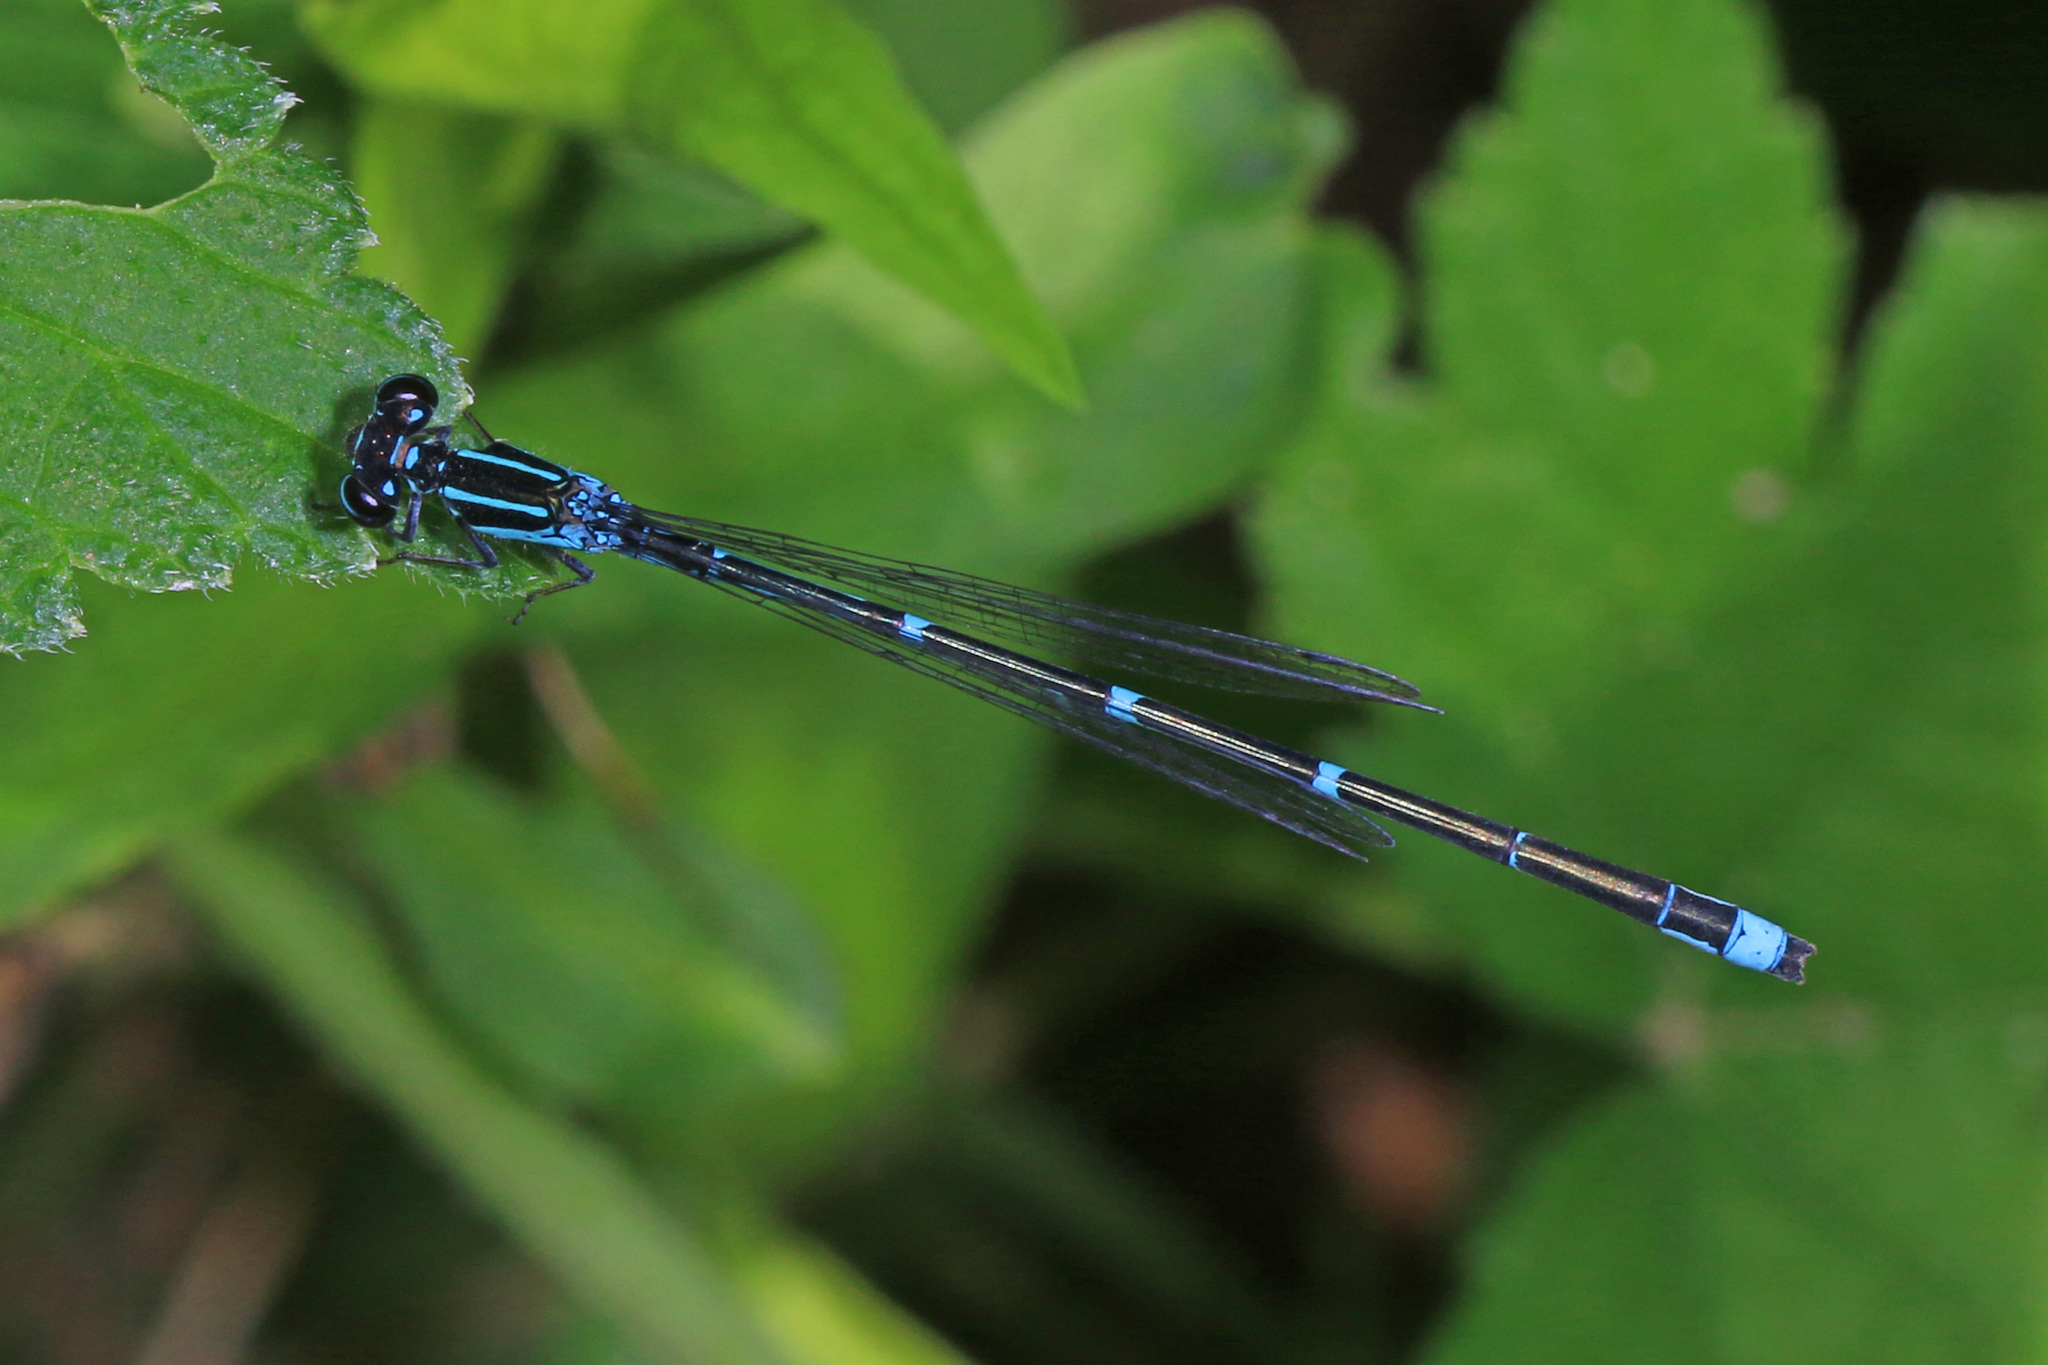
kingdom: Animalia
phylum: Arthropoda
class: Insecta
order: Odonata
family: Coenagrionidae
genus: Enallagma
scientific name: Enallagma exsulans
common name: Stream bluet
